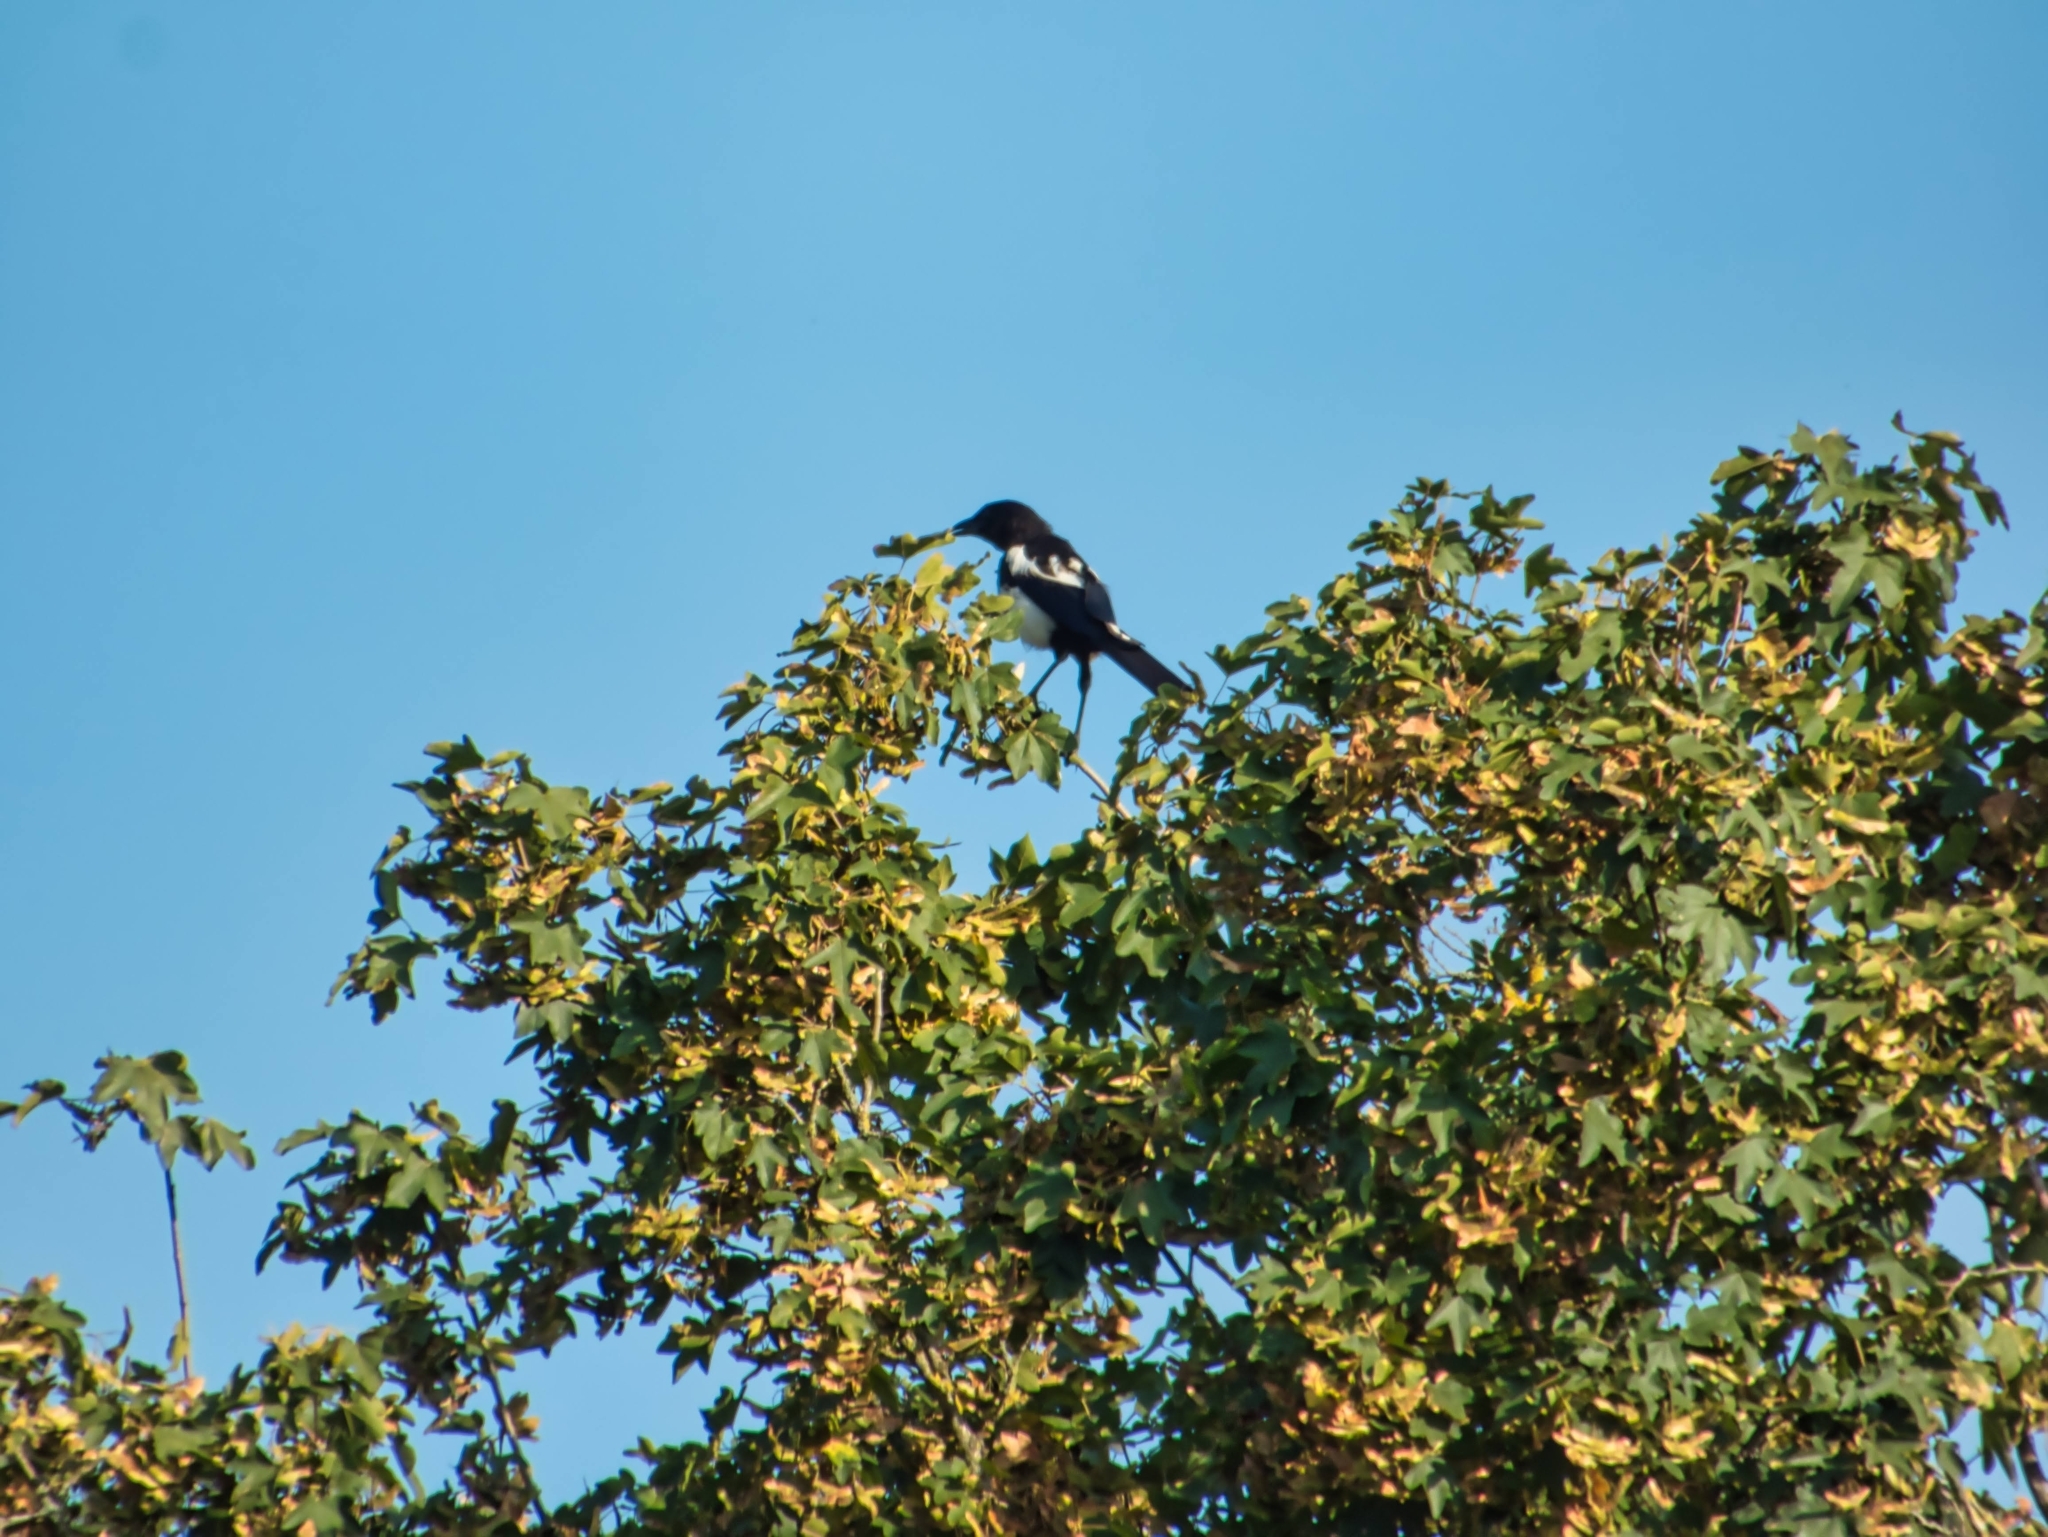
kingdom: Animalia
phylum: Chordata
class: Aves
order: Passeriformes
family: Corvidae
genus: Pica
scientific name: Pica pica
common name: Eurasian magpie
